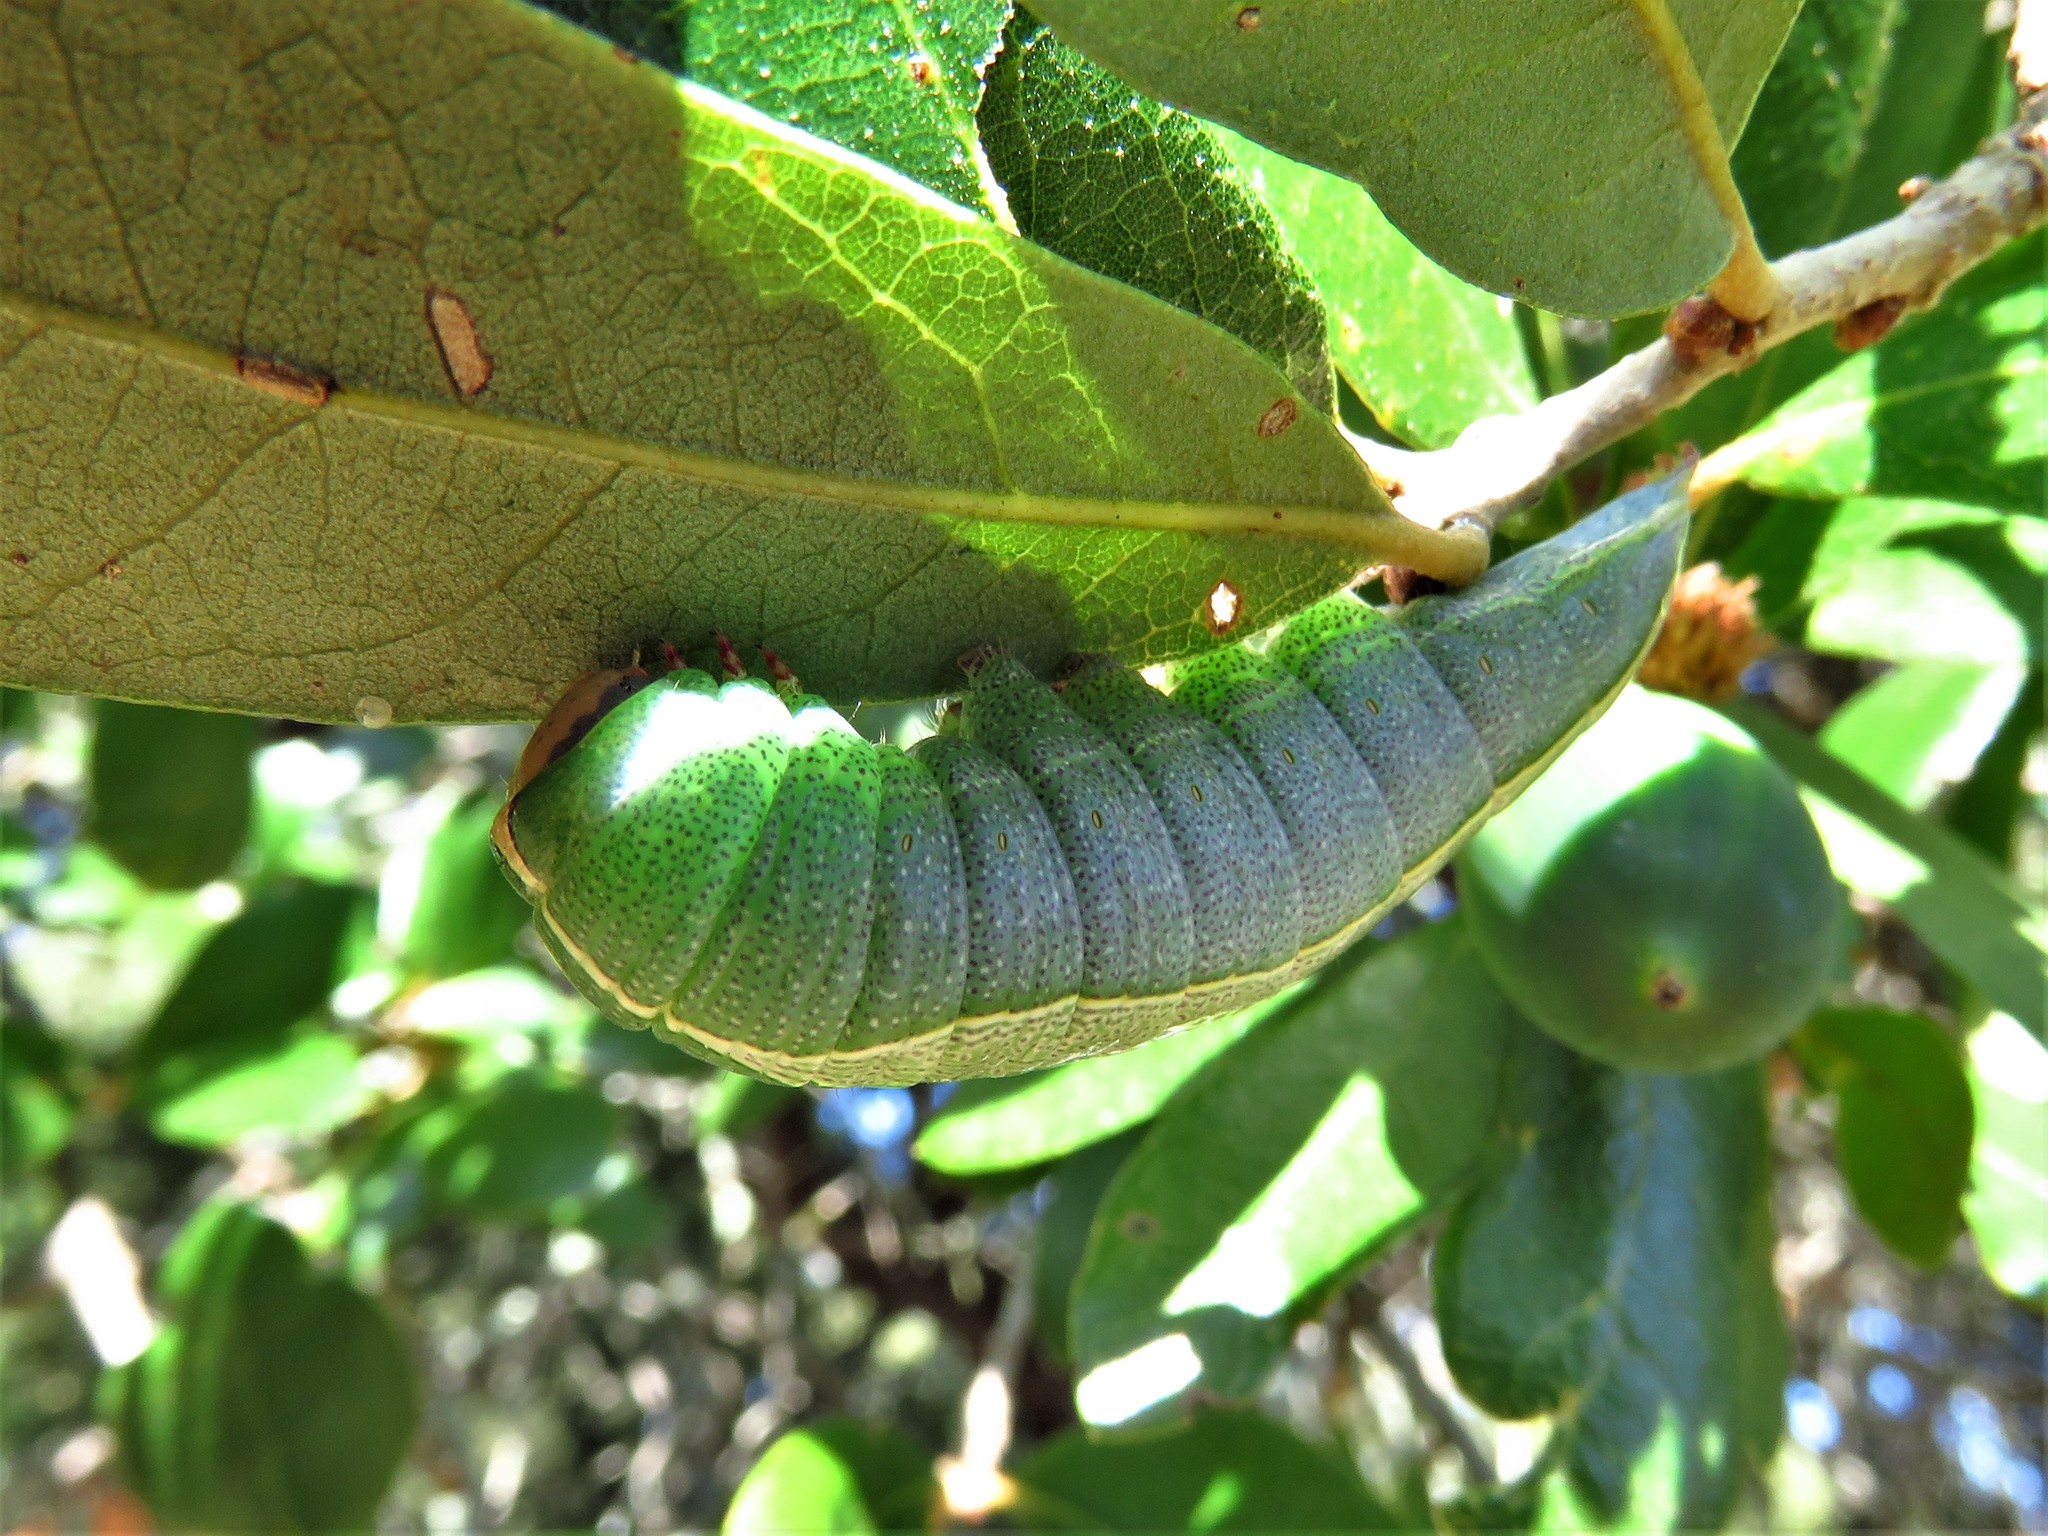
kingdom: Animalia
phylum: Arthropoda
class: Insecta
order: Lepidoptera
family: Notodontidae
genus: Heterocampa
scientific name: Heterocampa astartoides
